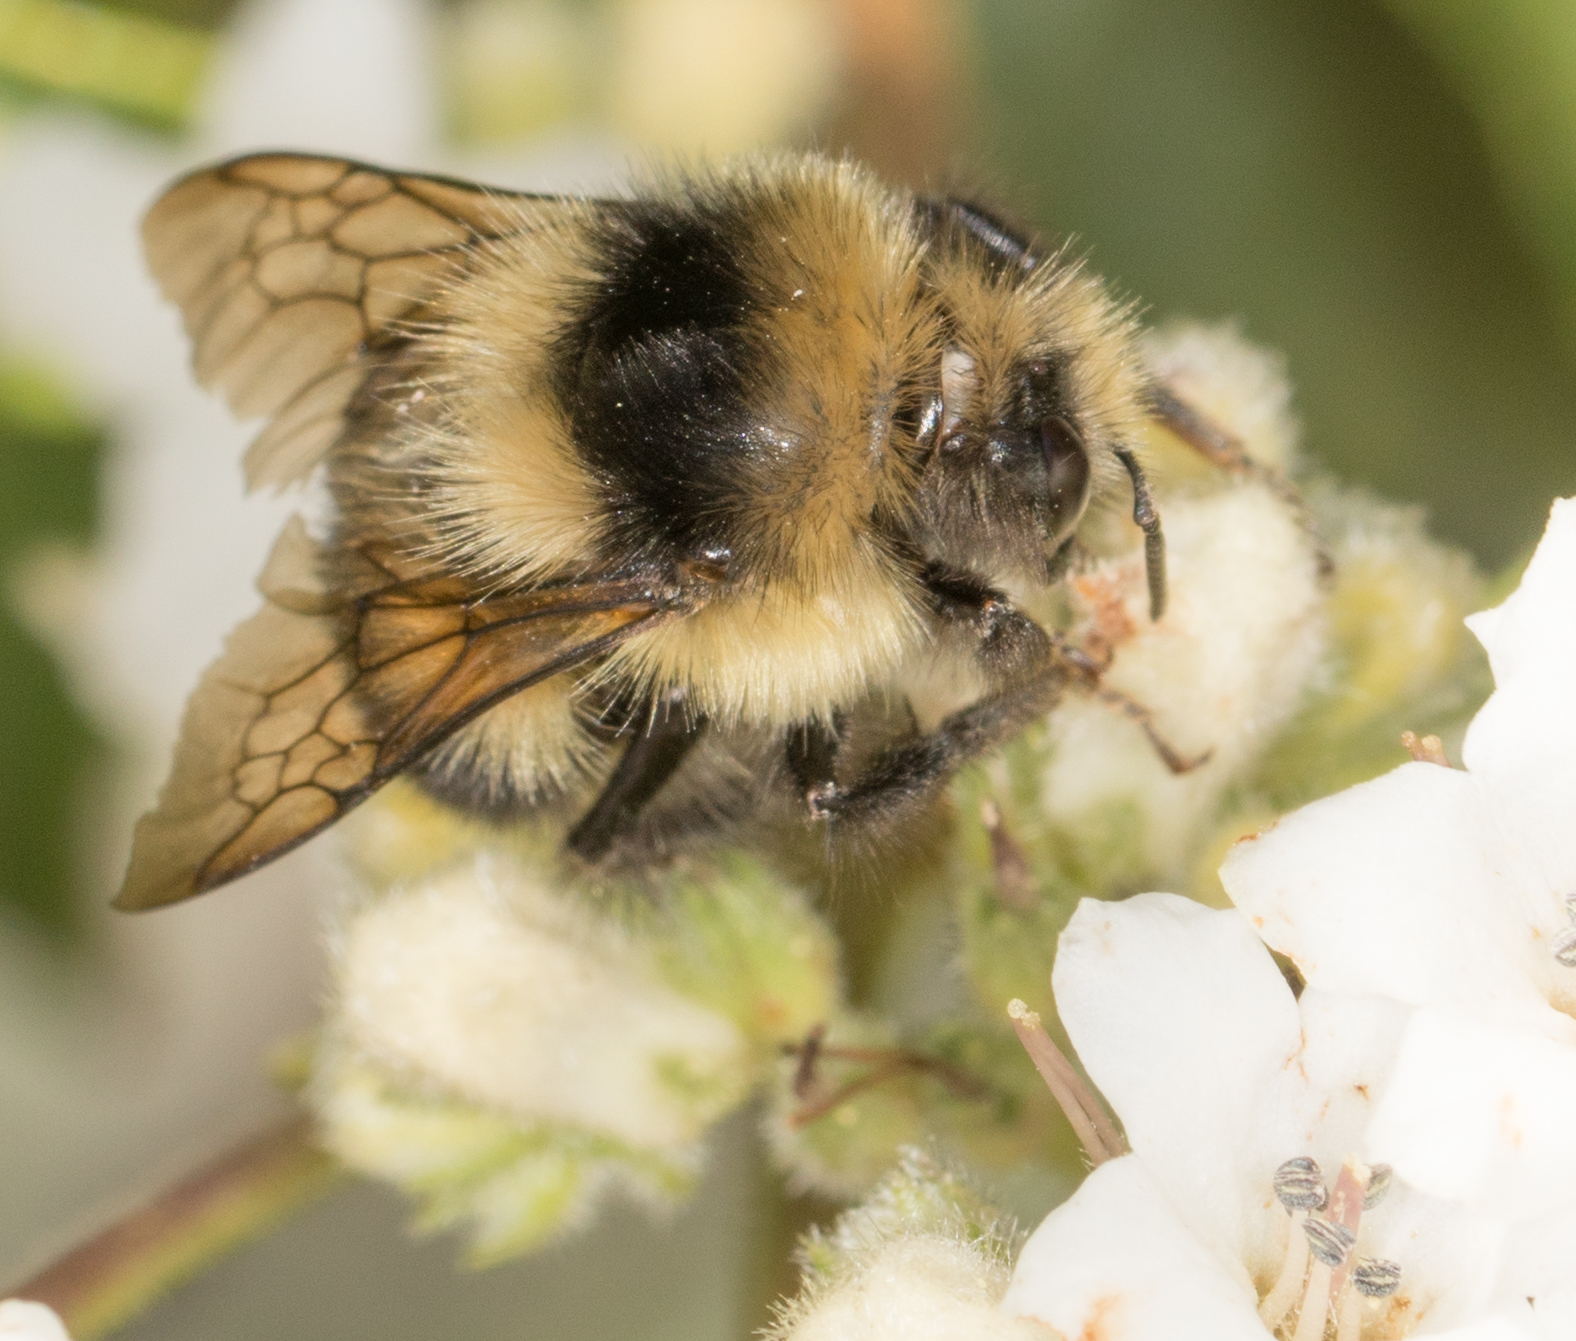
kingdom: Animalia
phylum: Arthropoda
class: Insecta
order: Hymenoptera
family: Apidae
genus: Bombus
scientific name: Bombus melanopygus
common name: Black tail bumble bee
